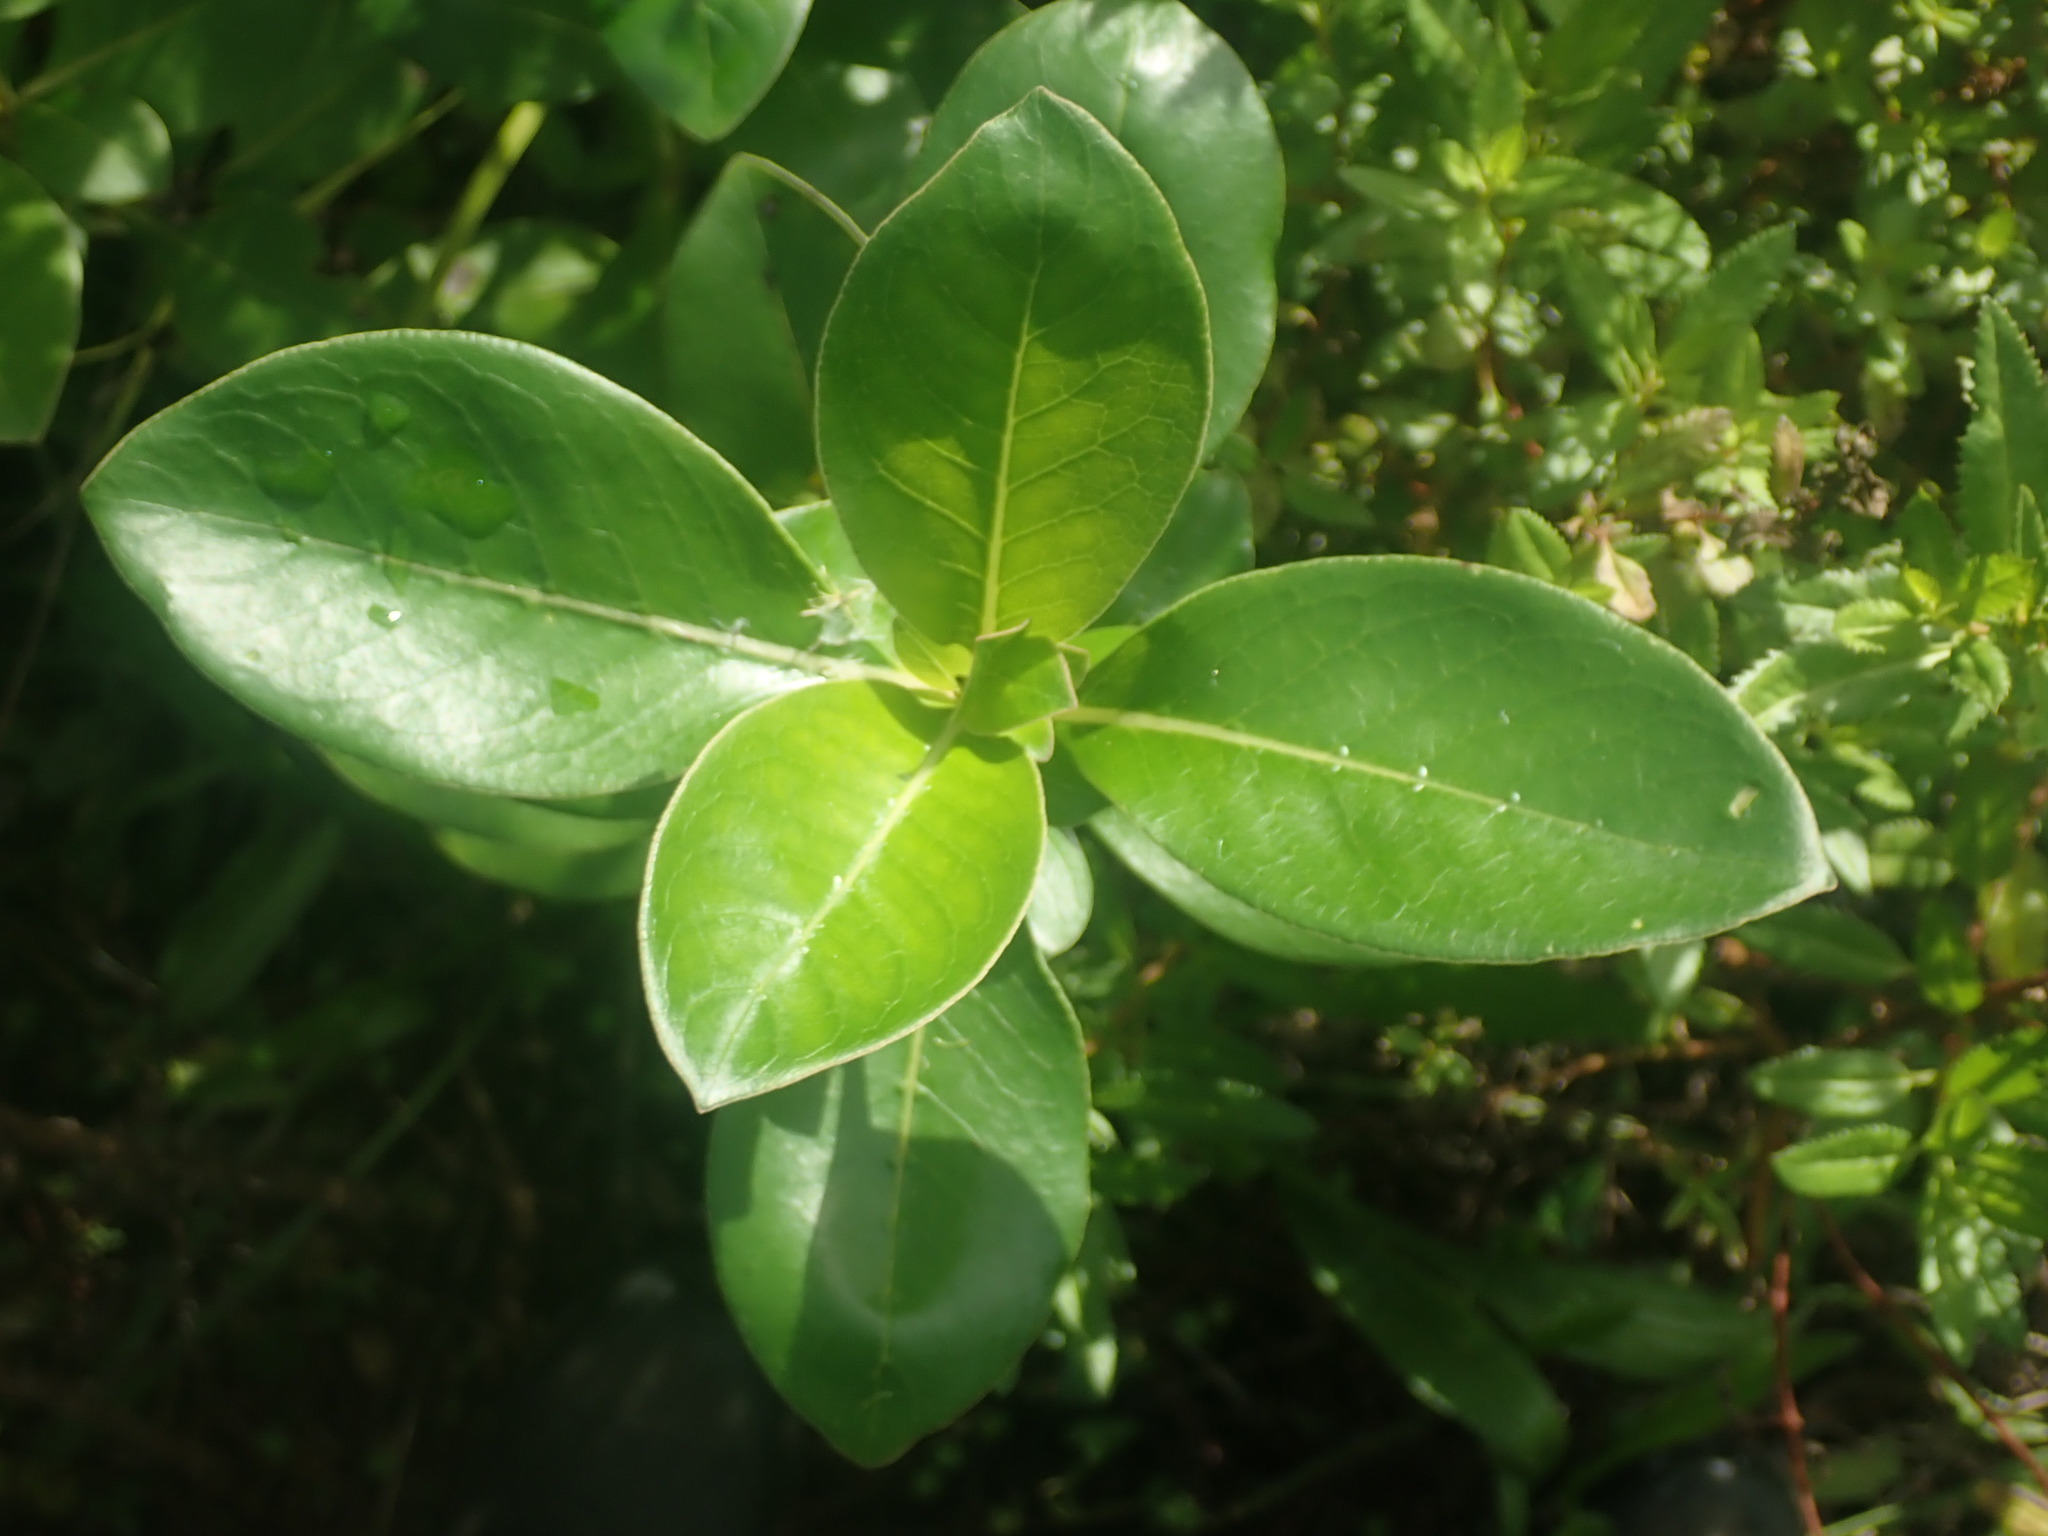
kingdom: Plantae
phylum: Tracheophyta
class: Magnoliopsida
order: Gentianales
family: Rubiaceae
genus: Coprosma
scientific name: Coprosma robusta
